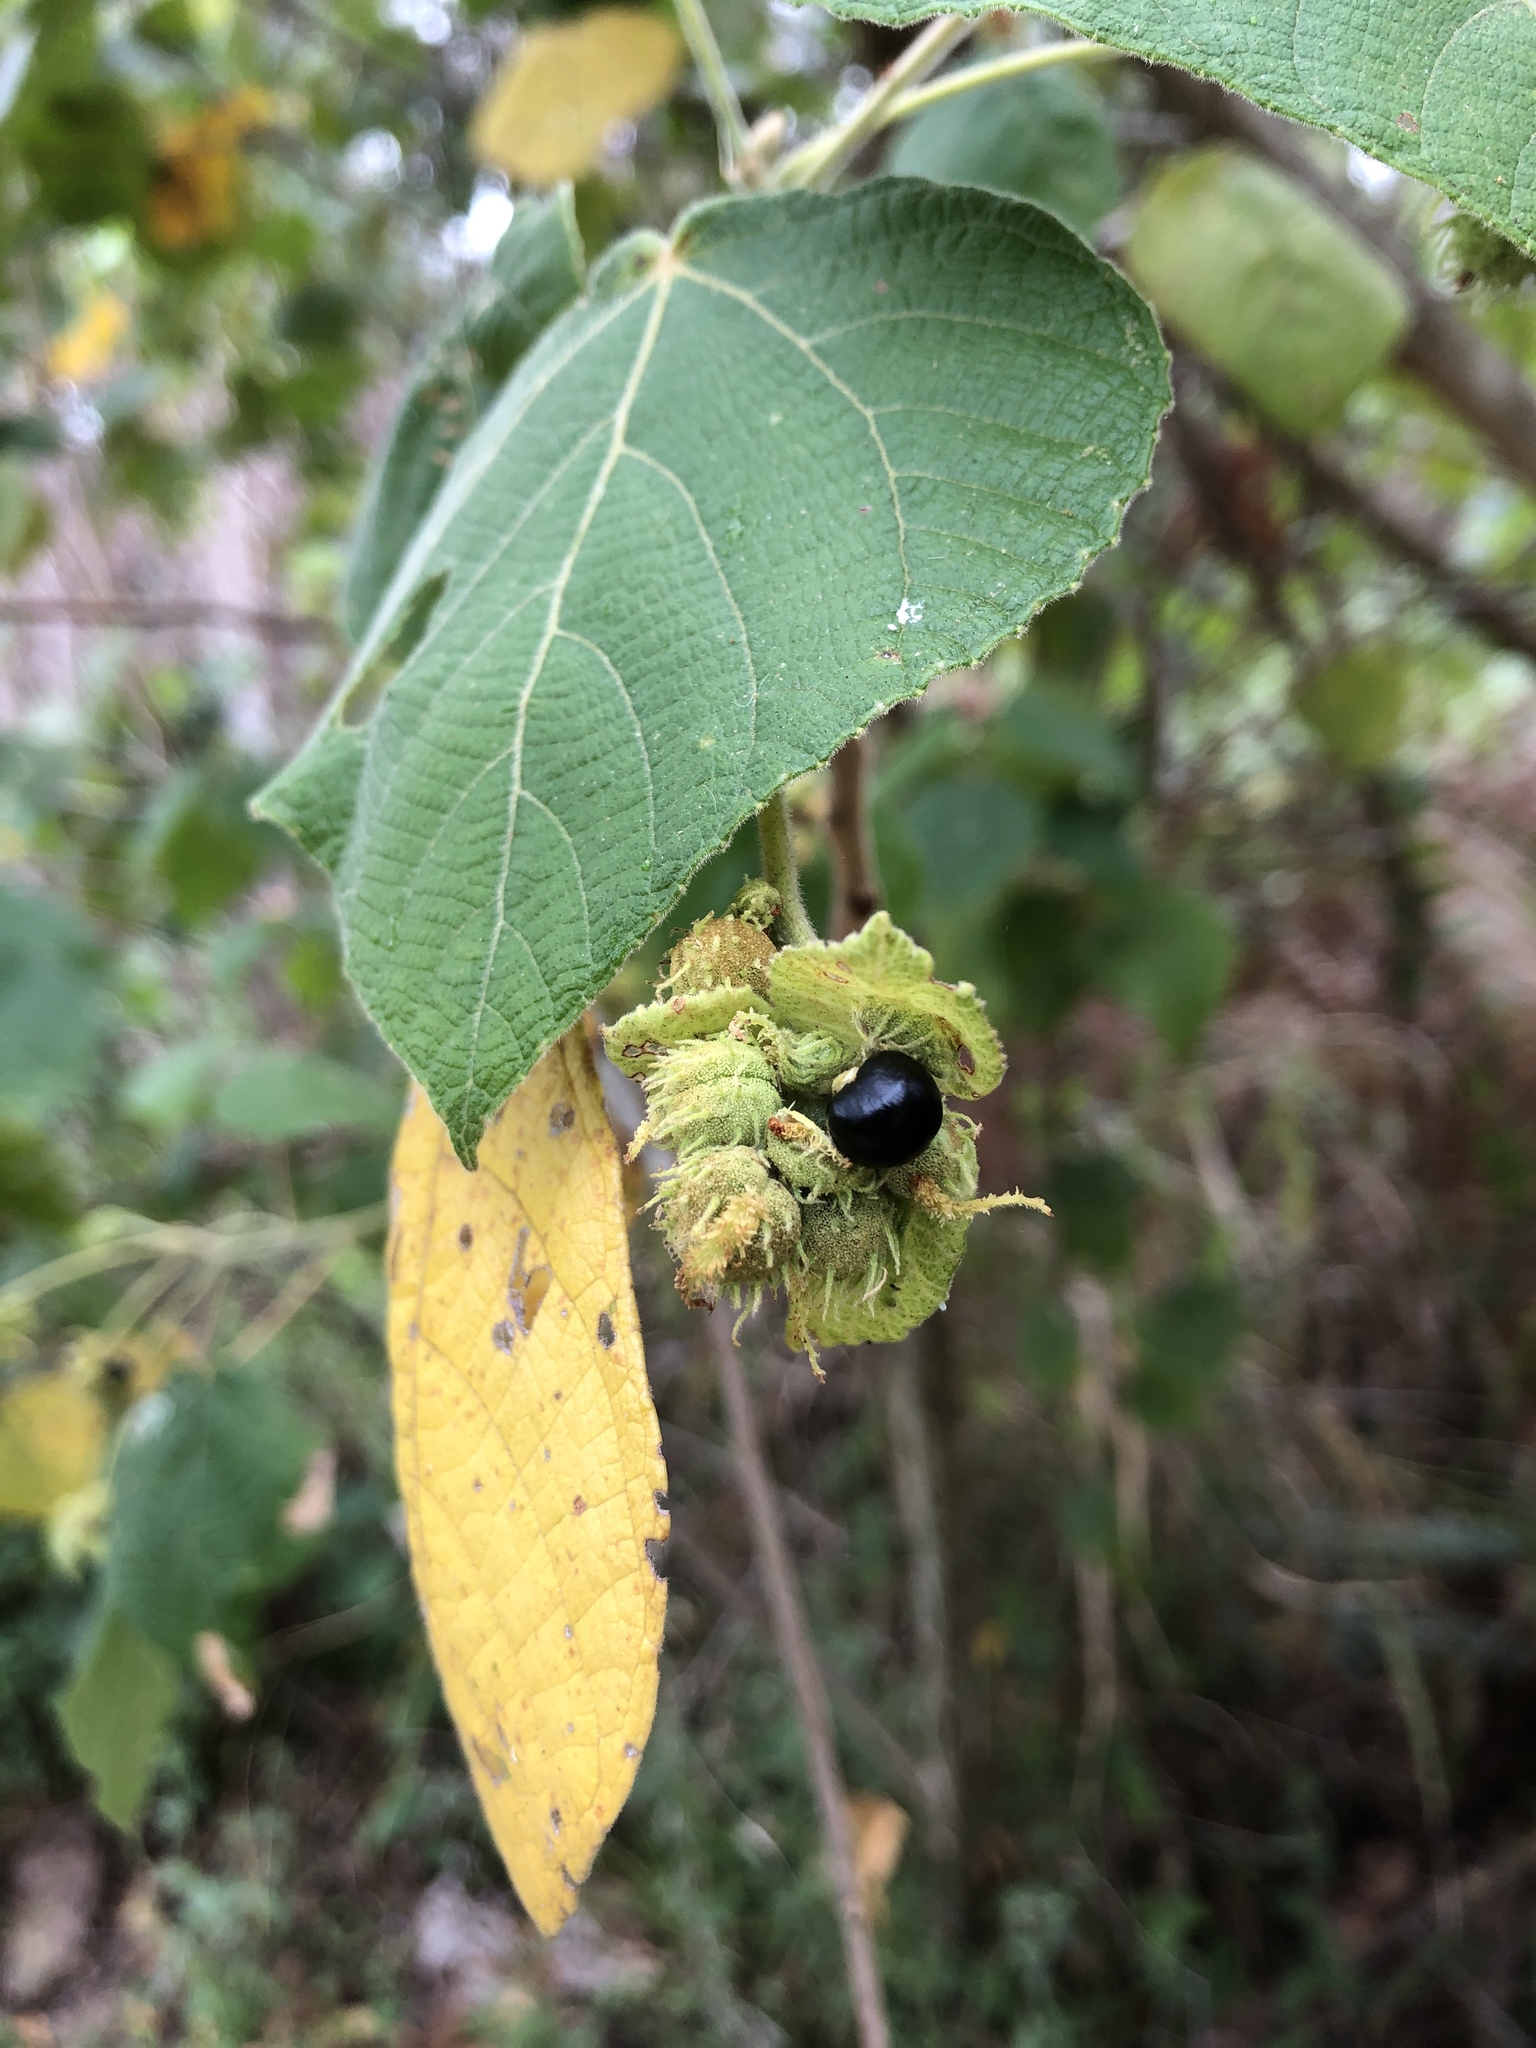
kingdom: Plantae
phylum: Tracheophyta
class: Magnoliopsida
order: Malpighiales
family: Euphorbiaceae
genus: Macaranga
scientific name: Macaranga involucrata
